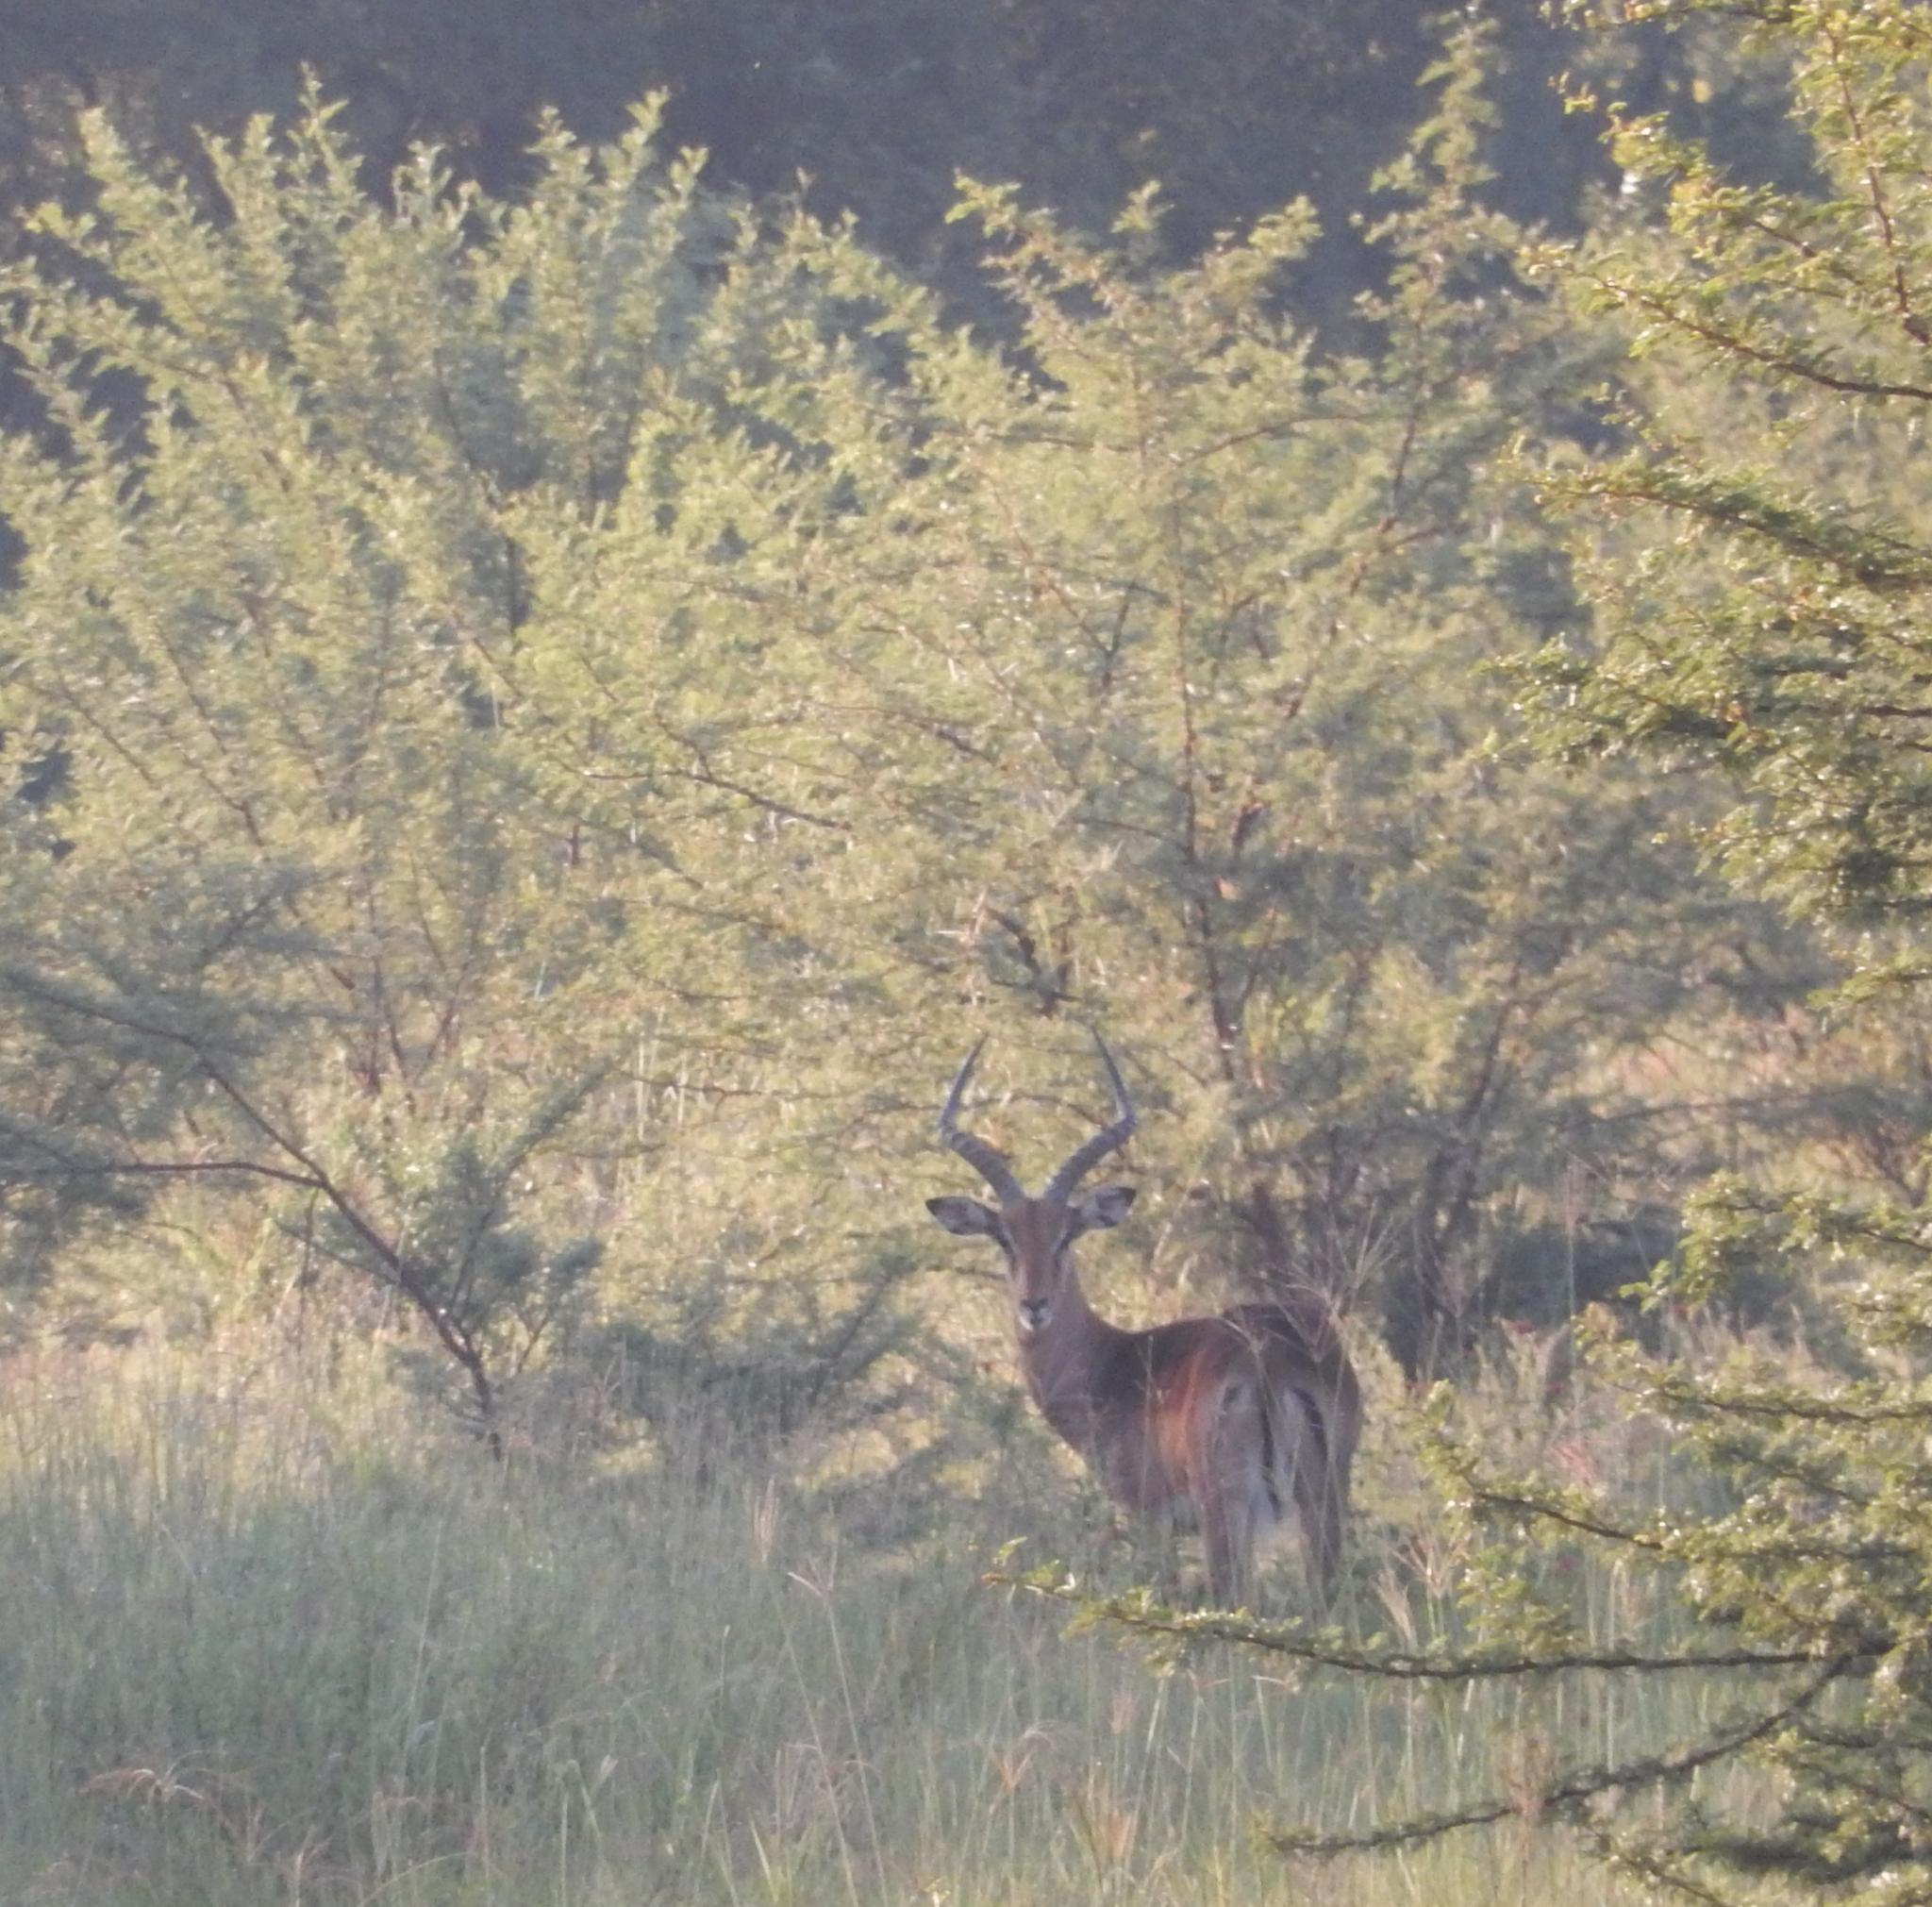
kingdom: Animalia
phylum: Chordata
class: Mammalia
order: Artiodactyla
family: Bovidae
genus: Aepyceros
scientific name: Aepyceros melampus
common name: Impala
